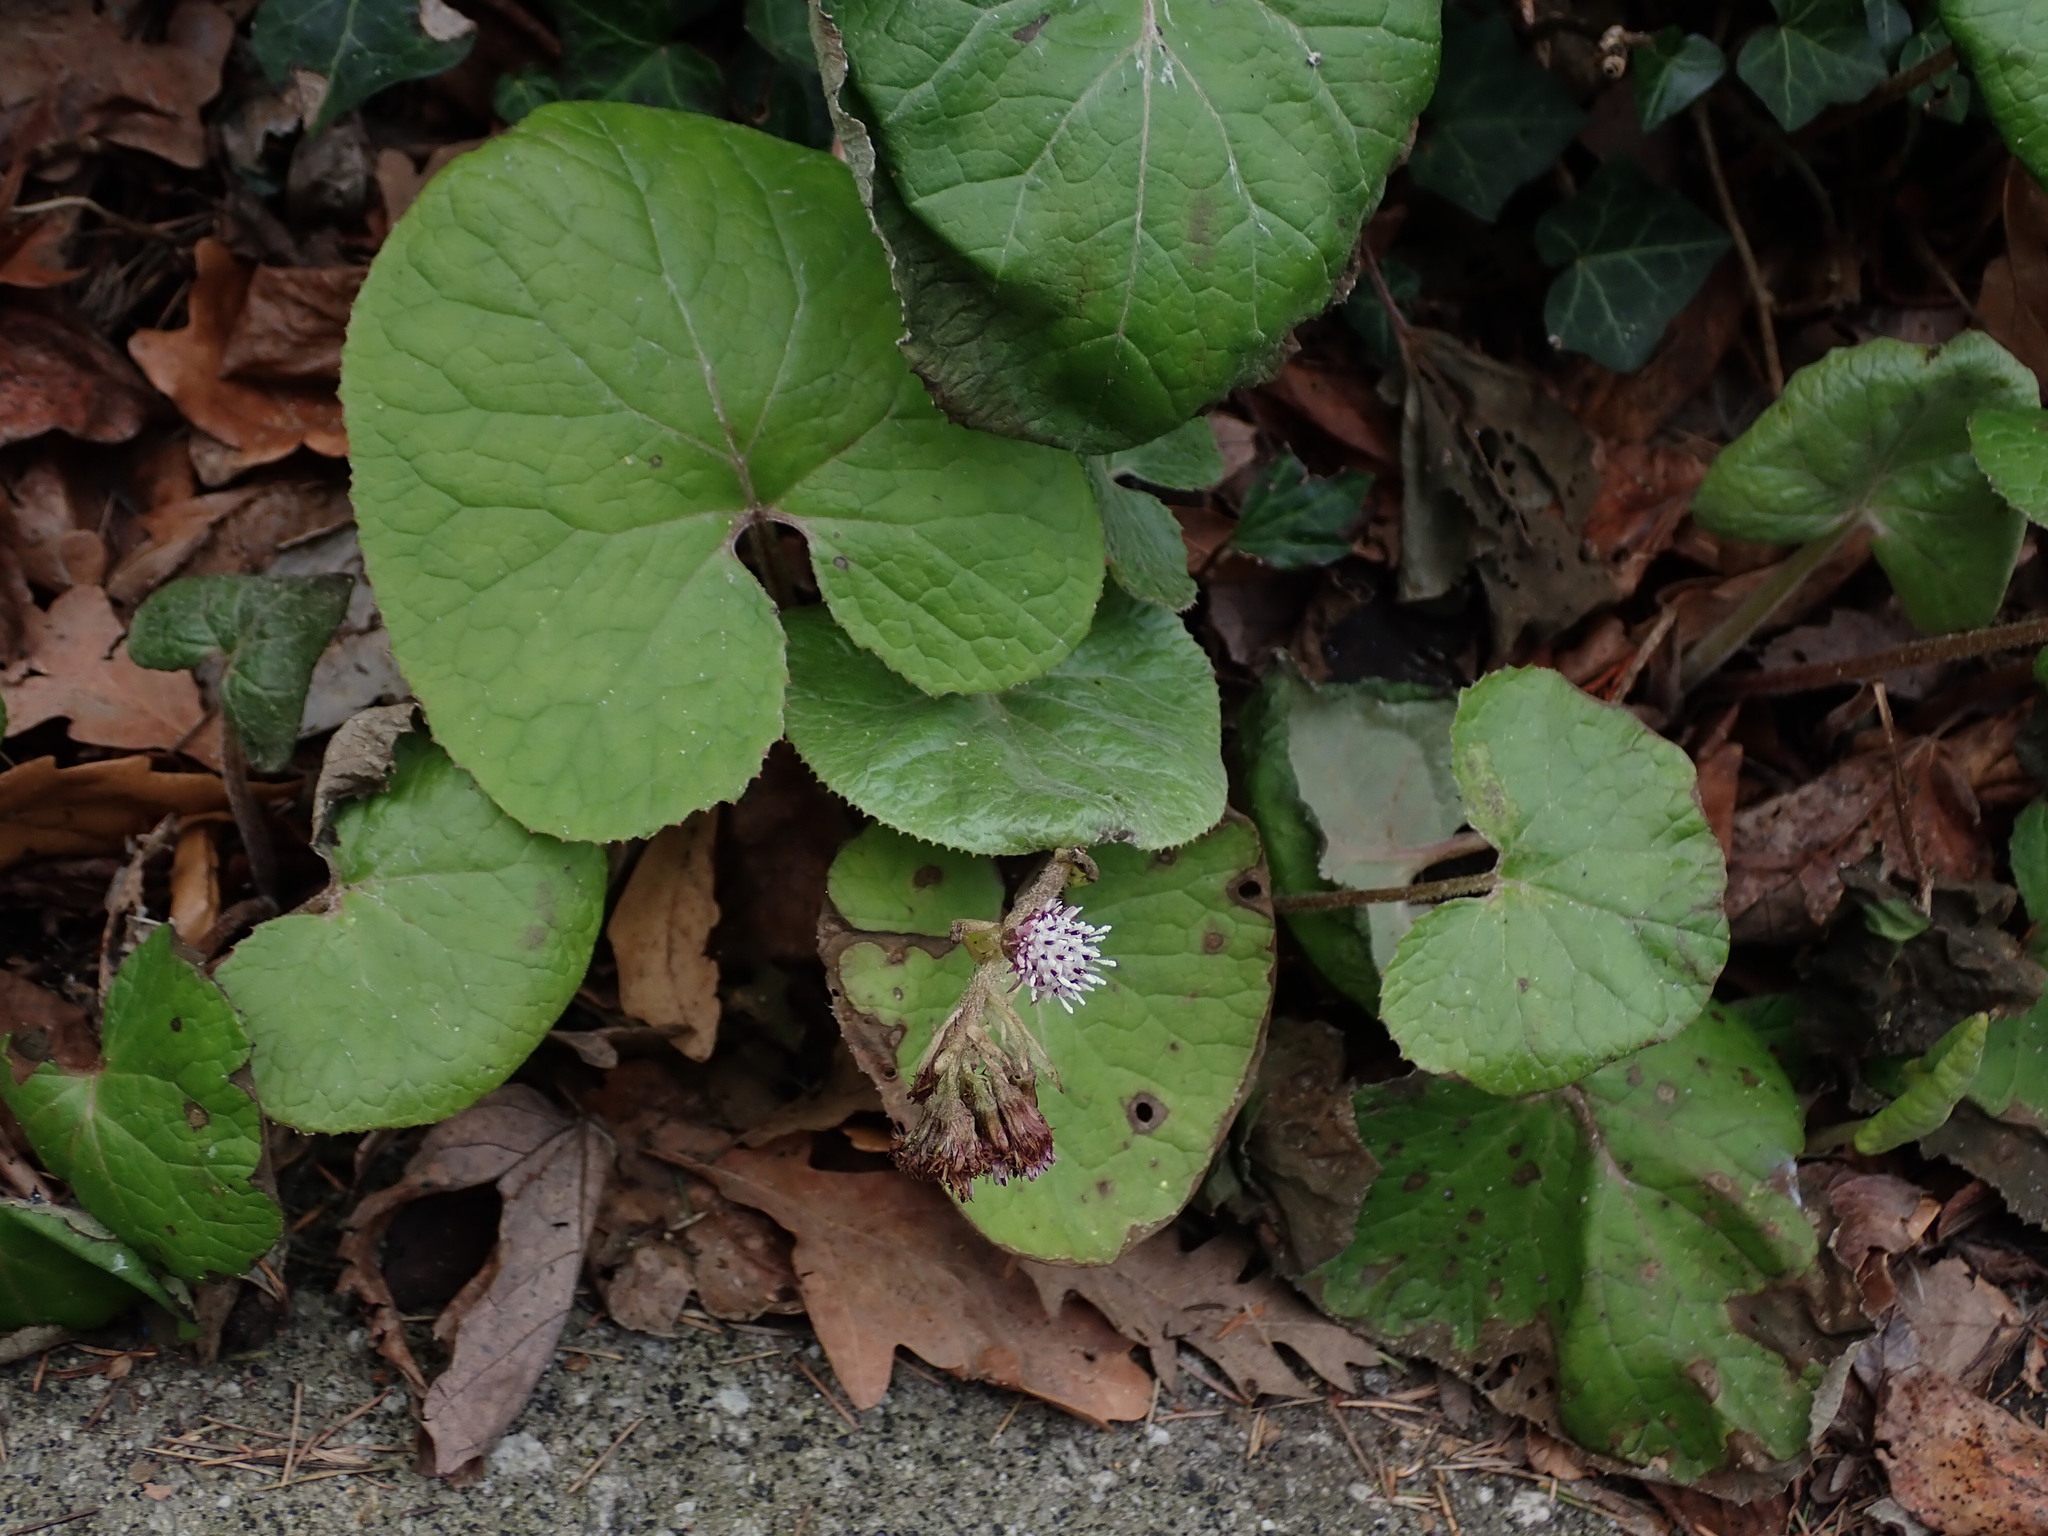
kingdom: Plantae
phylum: Tracheophyta
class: Magnoliopsida
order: Asterales
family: Asteraceae
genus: Petasites
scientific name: Petasites pyrenaicus
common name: Winter heliotrope
